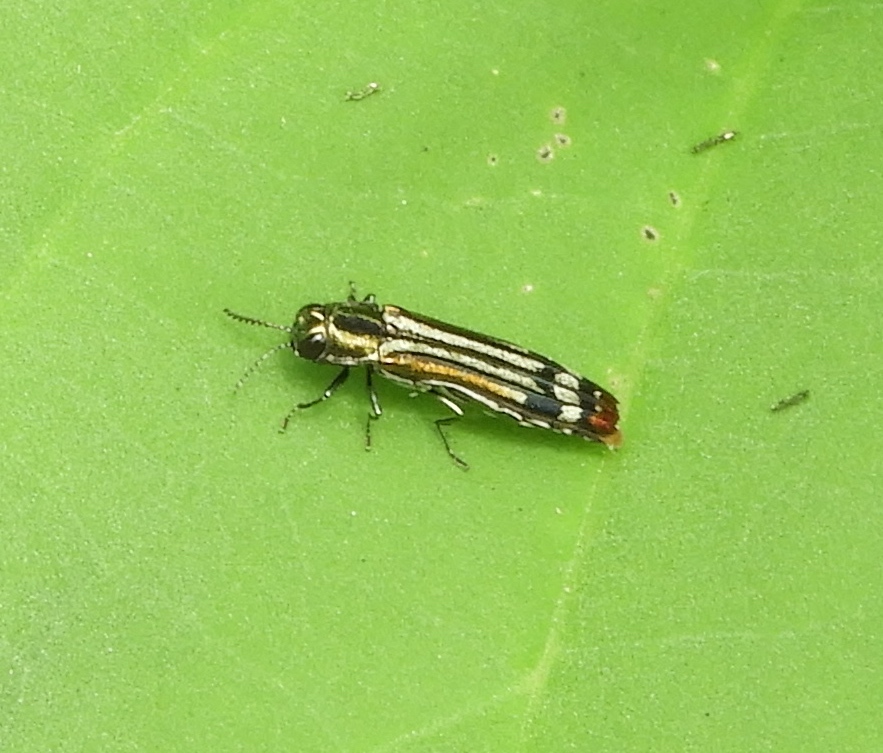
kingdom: Animalia
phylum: Arthropoda
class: Insecta
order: Coleoptera
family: Buprestidae
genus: Agrilus
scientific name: Agrilus catherinae
